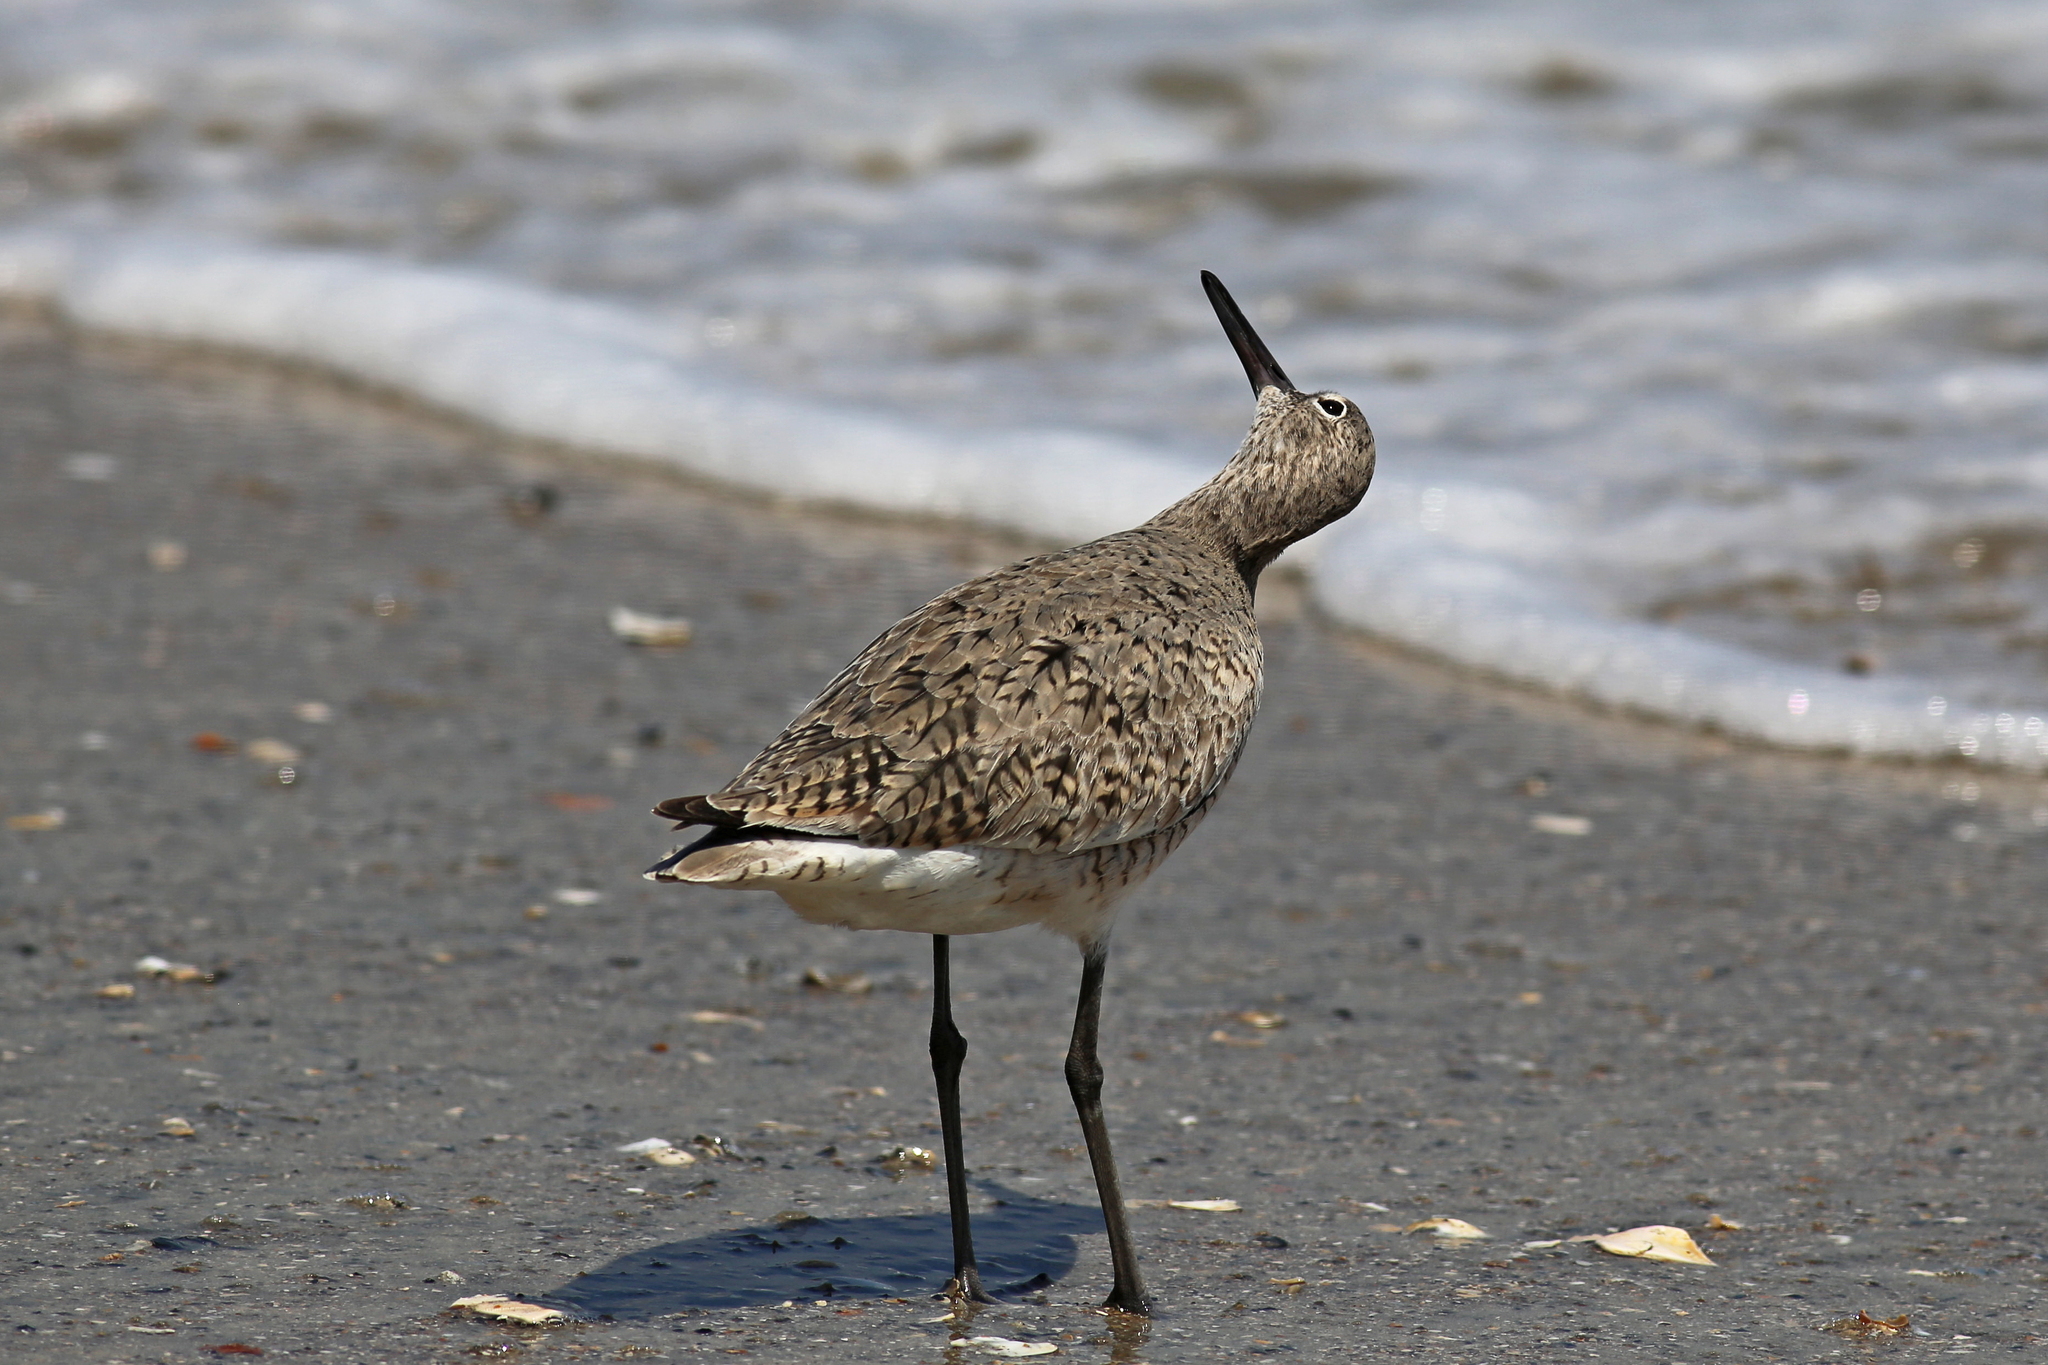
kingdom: Animalia
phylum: Chordata
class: Aves
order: Charadriiformes
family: Scolopacidae
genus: Tringa
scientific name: Tringa semipalmata
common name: Willet
